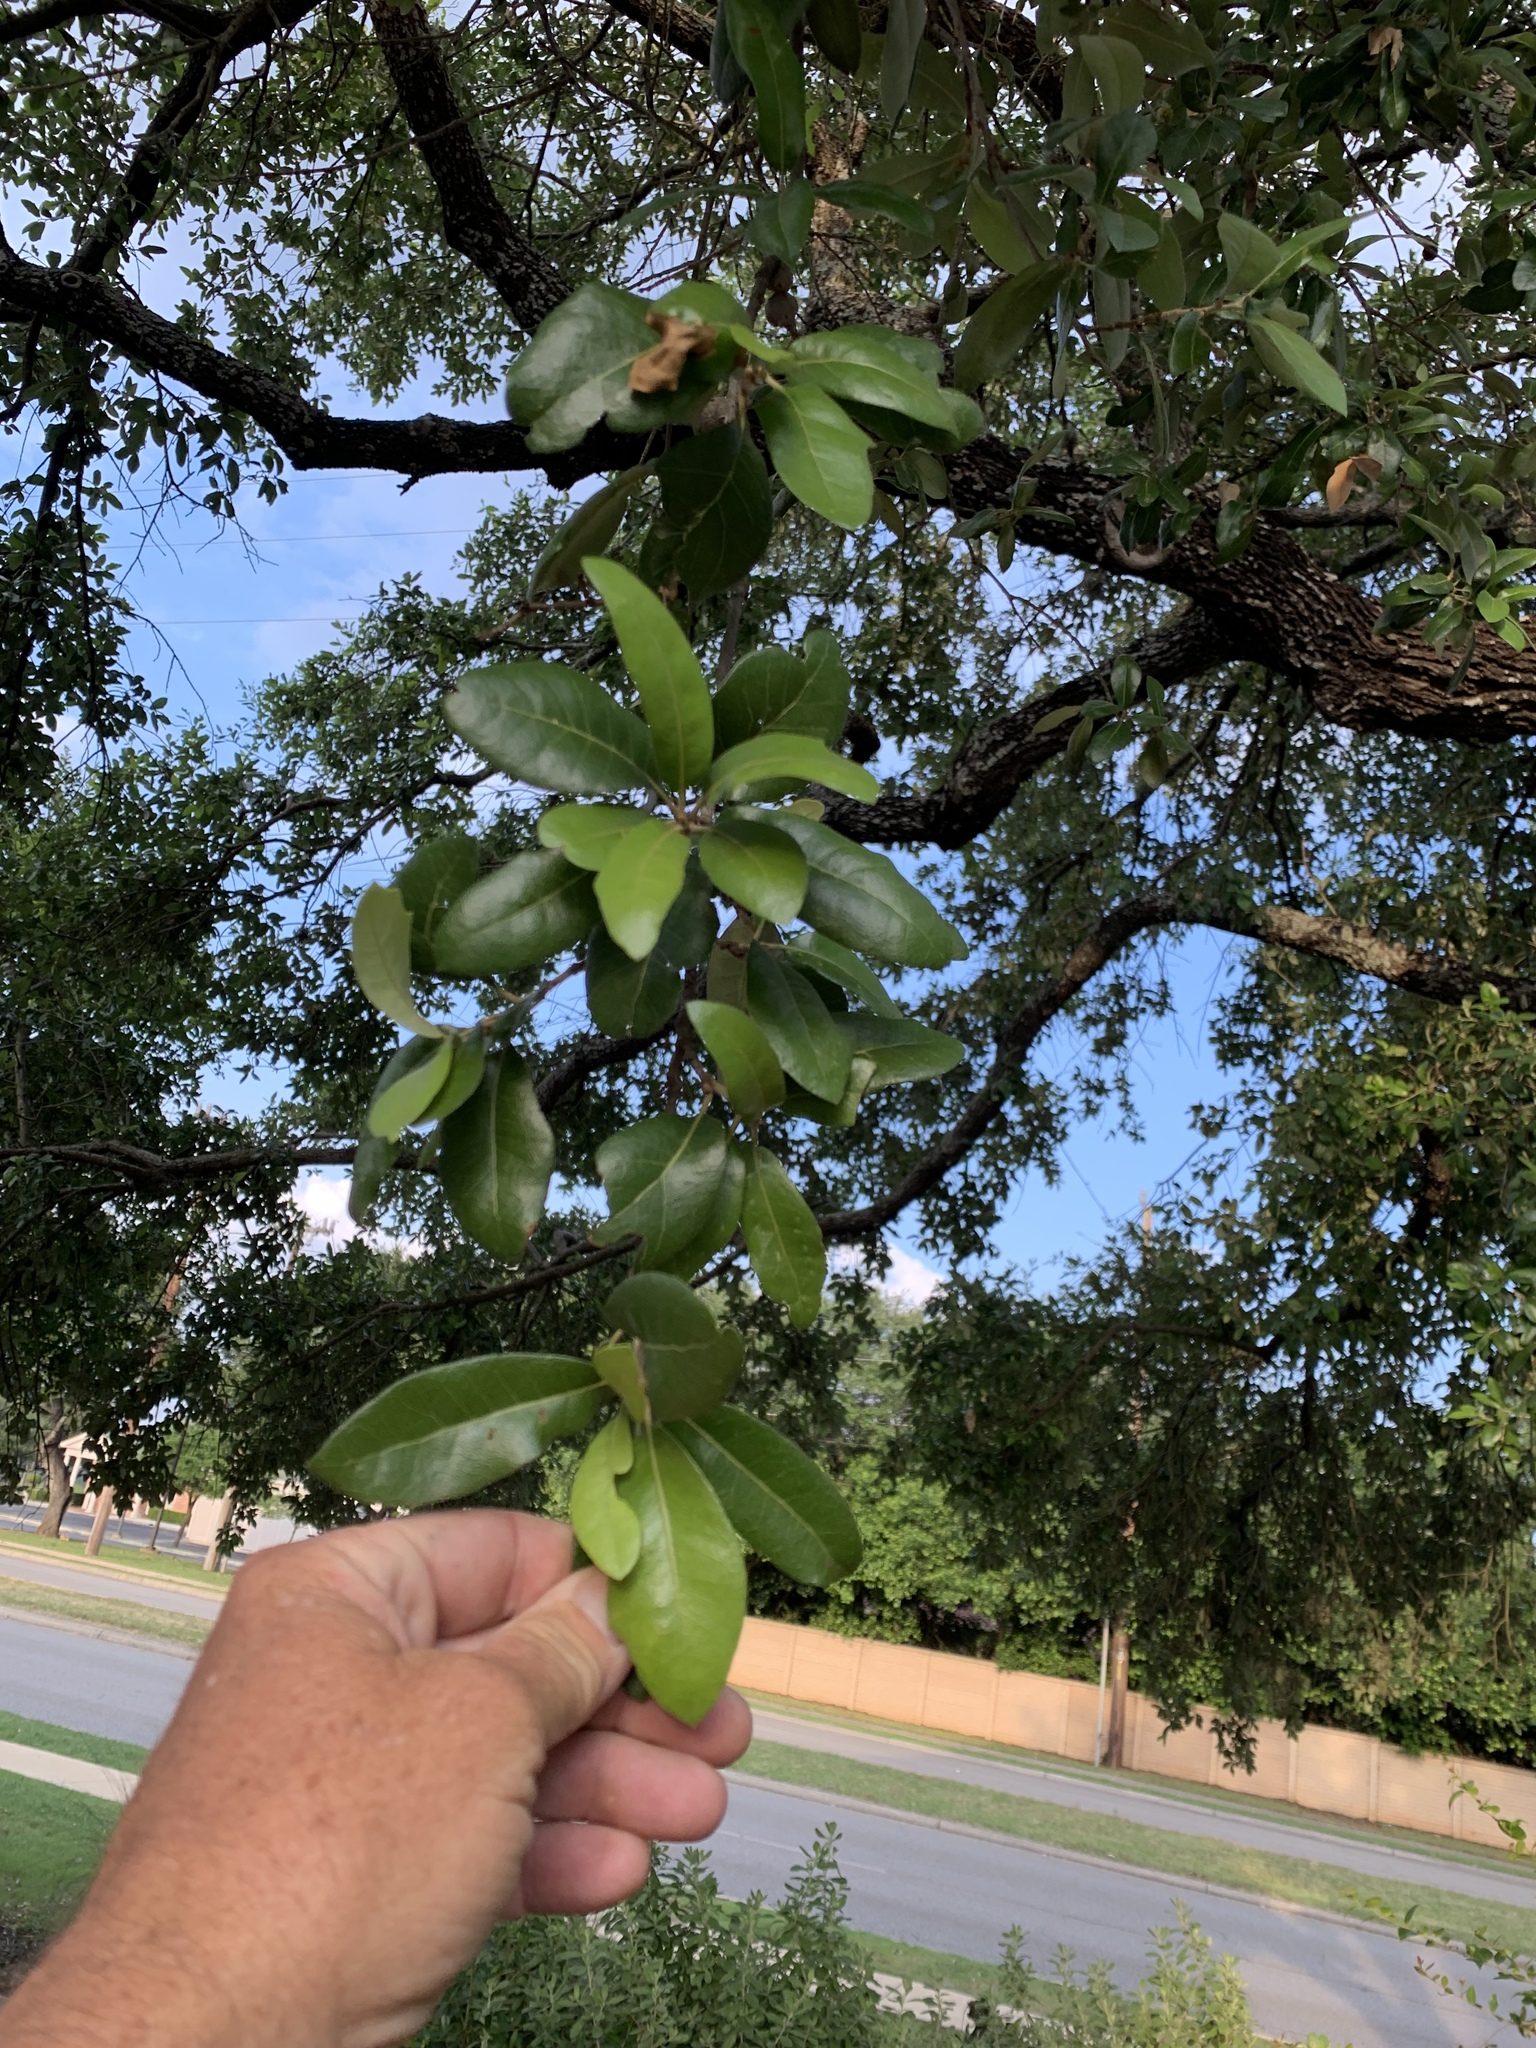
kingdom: Plantae
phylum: Tracheophyta
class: Magnoliopsida
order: Fagales
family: Fagaceae
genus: Quercus
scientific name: Quercus fusiformis
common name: Texas live oak
